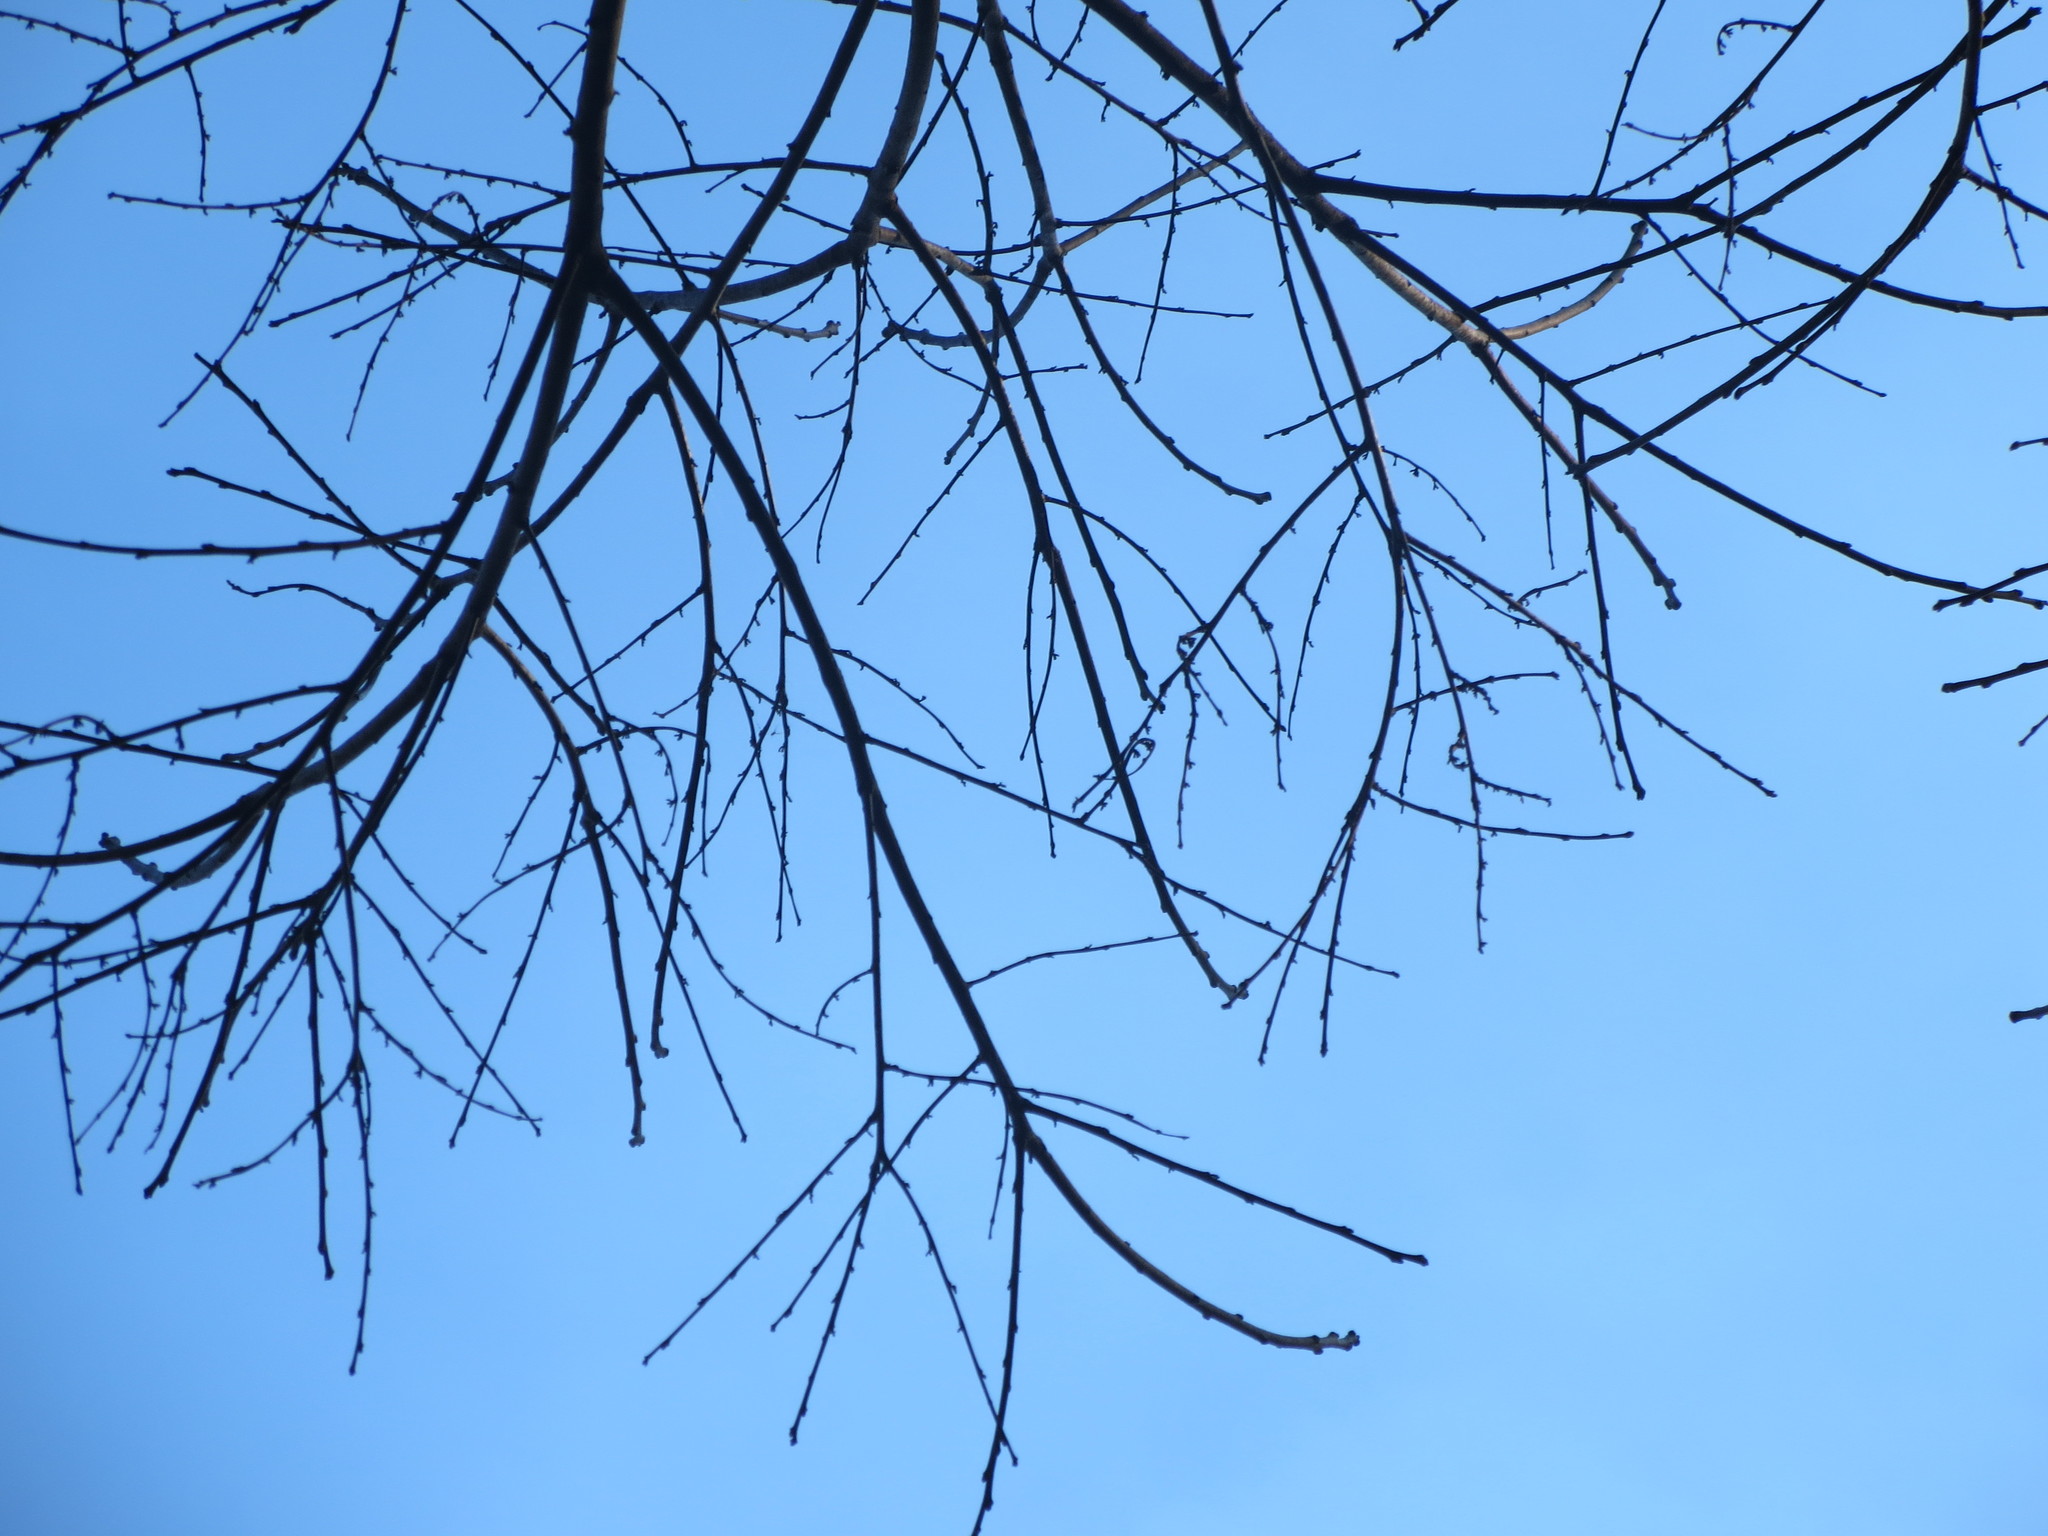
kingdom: Plantae
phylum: Tracheophyta
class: Magnoliopsida
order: Ericales
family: Ebenaceae
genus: Diospyros
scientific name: Diospyros virginiana
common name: Persimmon
